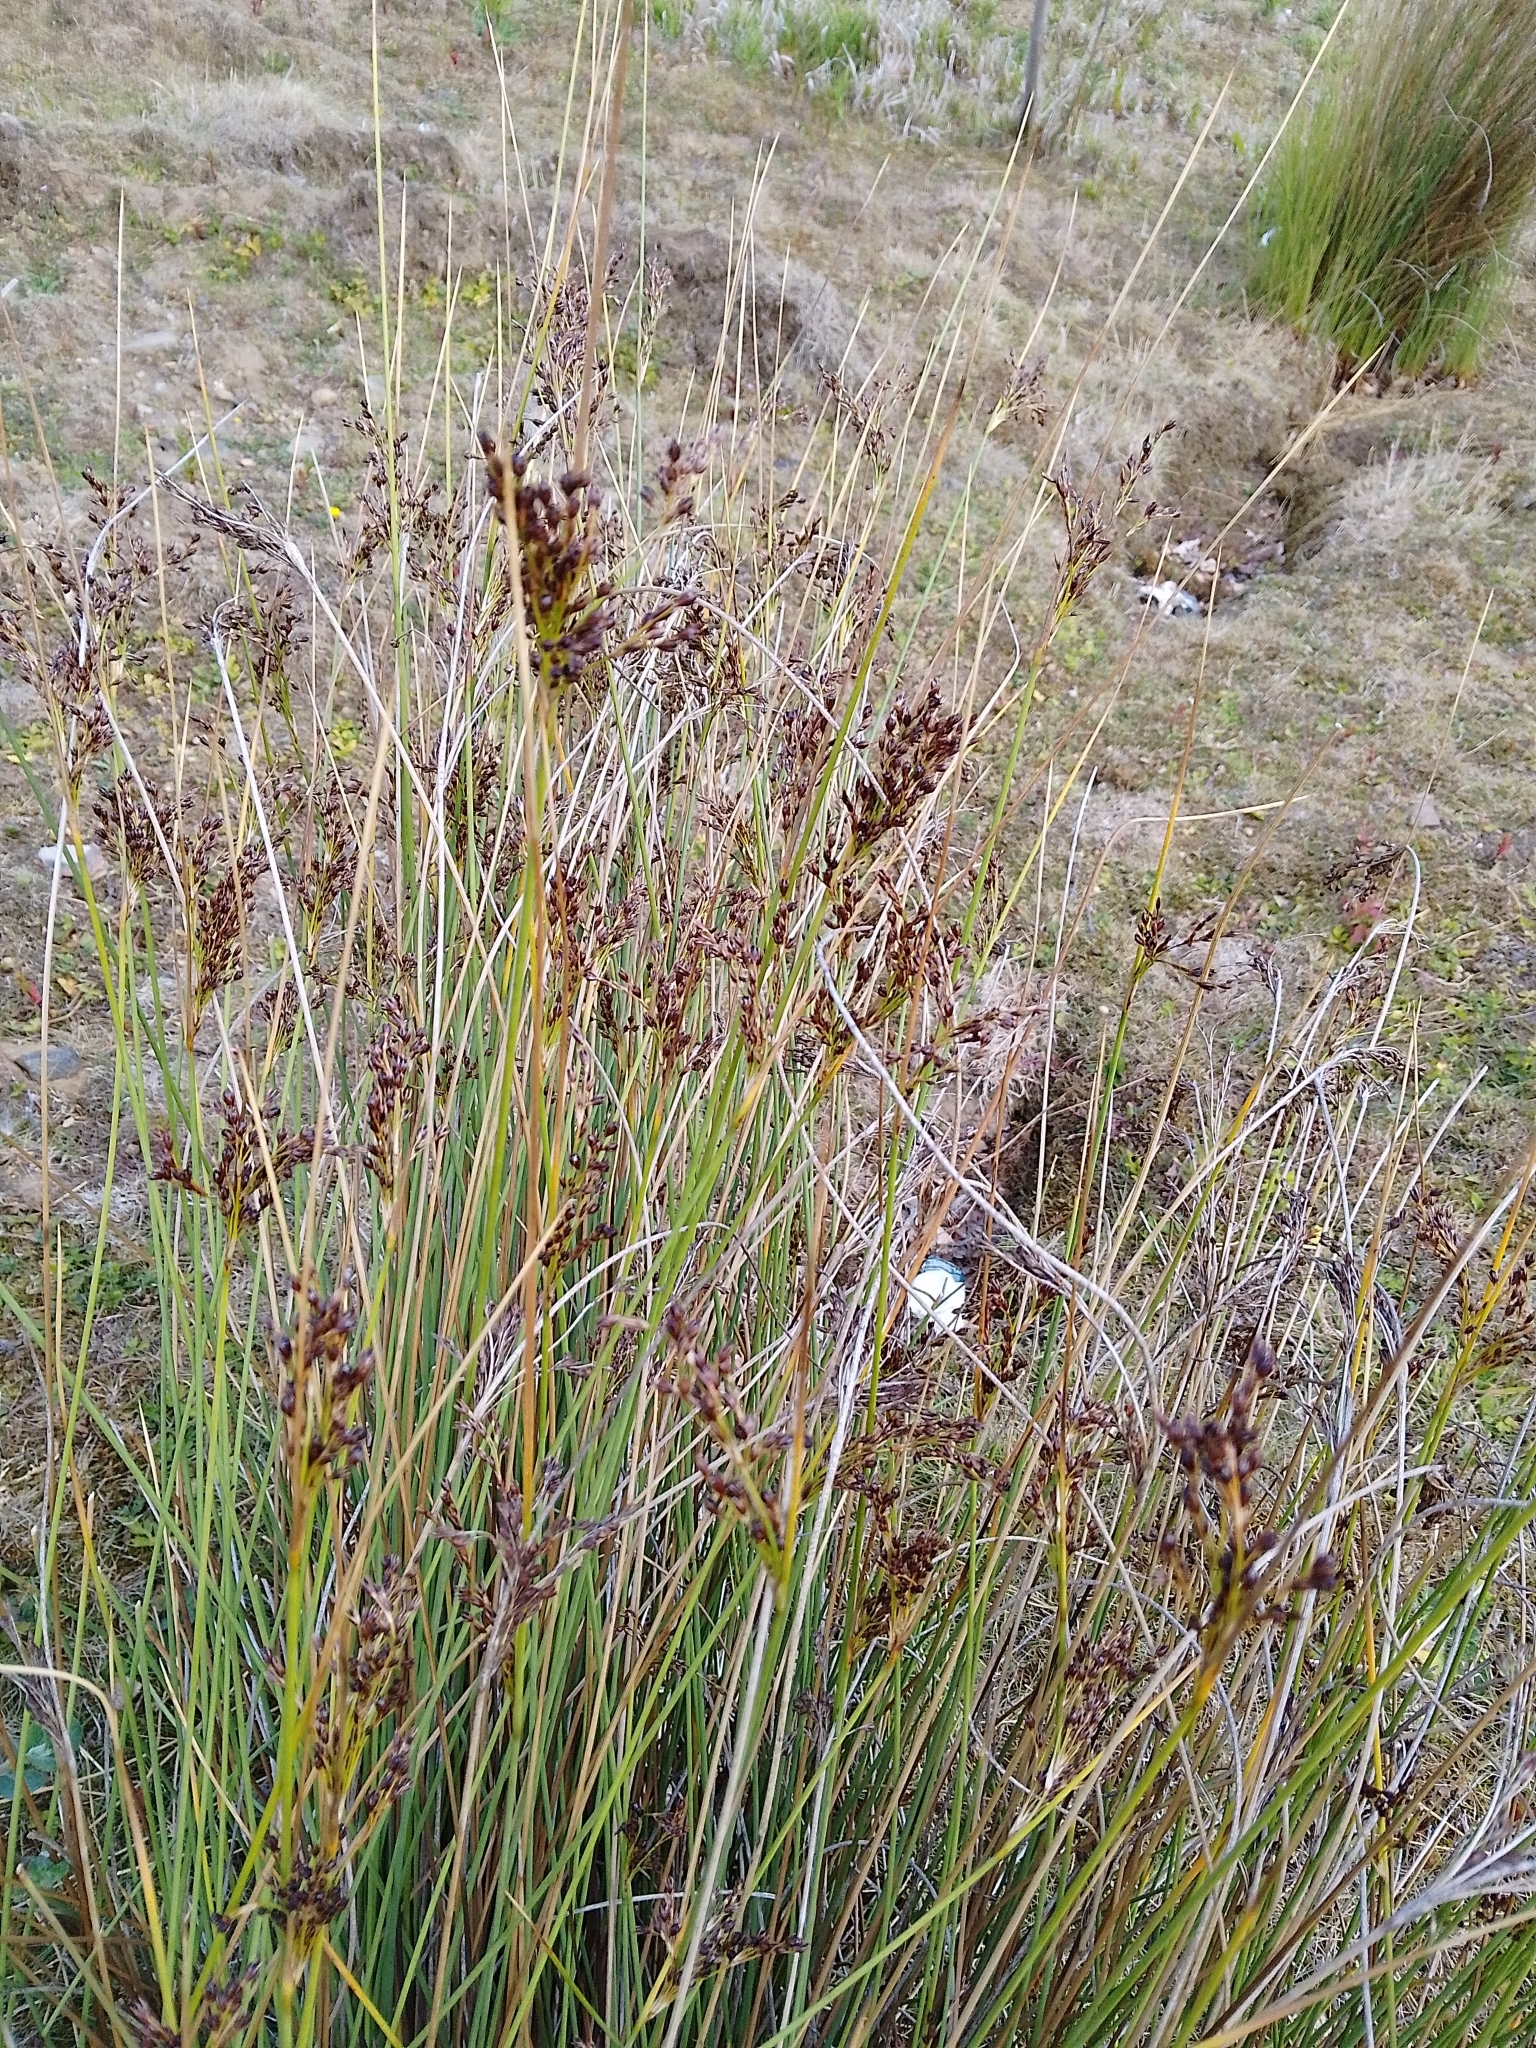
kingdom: Plantae
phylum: Tracheophyta
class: Liliopsida
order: Poales
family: Juncaceae
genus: Juncus
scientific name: Juncus inflexus
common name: Hard rush
